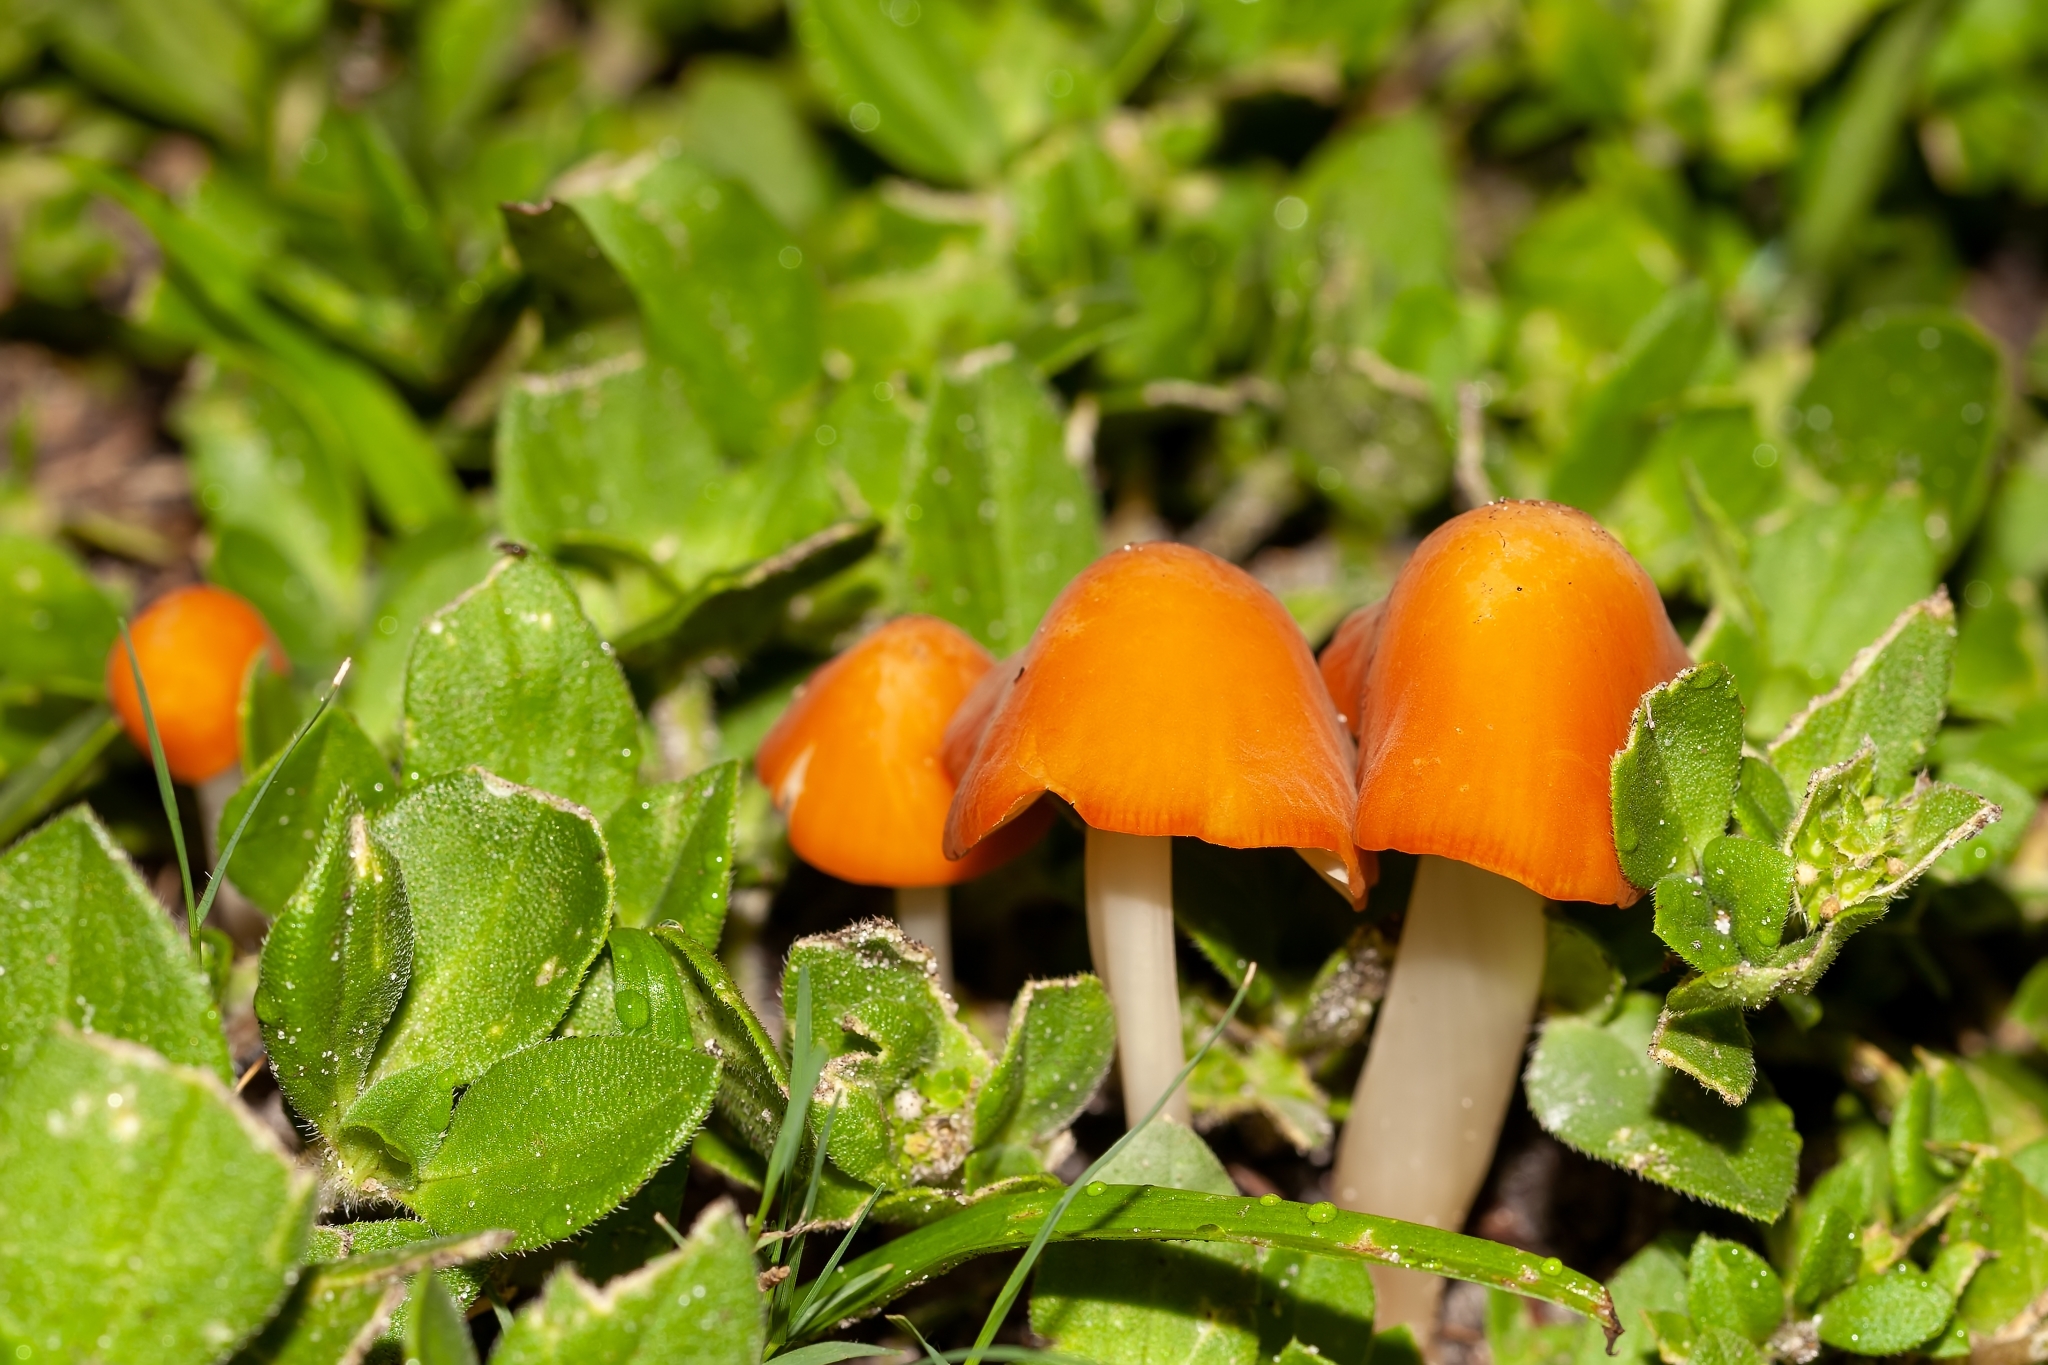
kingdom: Fungi
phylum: Basidiomycota
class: Agaricomycetes
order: Agaricales
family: Marasmiaceae
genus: Marasmius
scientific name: Marasmius vagus
